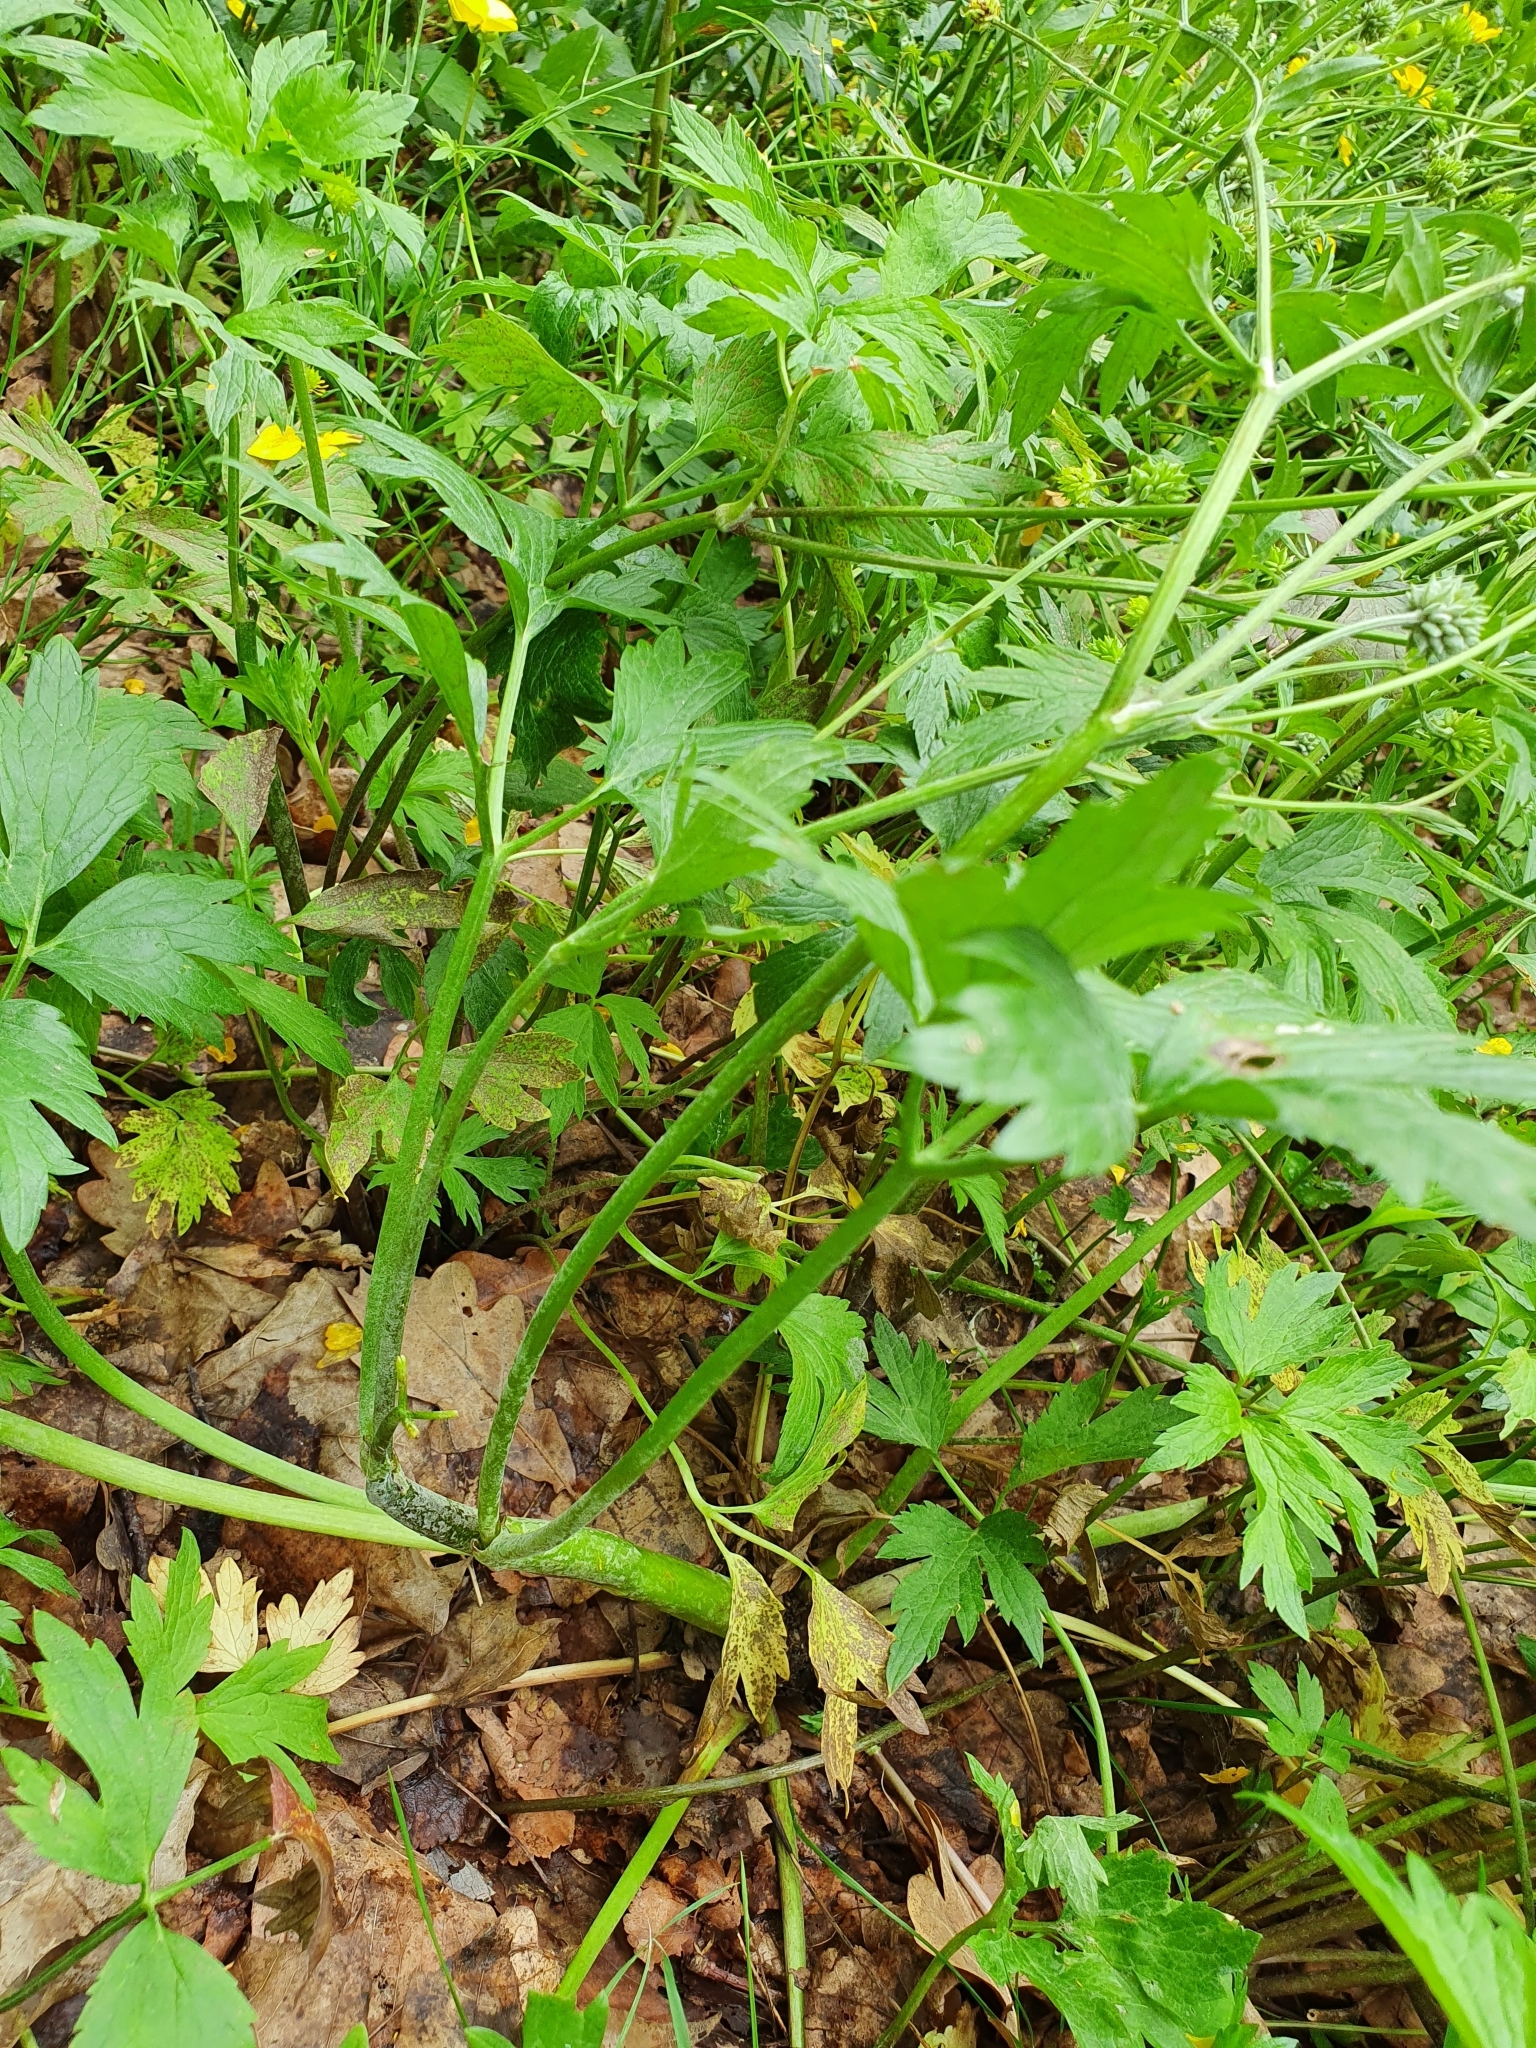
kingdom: Plantae
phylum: Tracheophyta
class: Magnoliopsida
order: Ranunculales
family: Ranunculaceae
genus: Ranunculus
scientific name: Ranunculus repens
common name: Creeping buttercup
